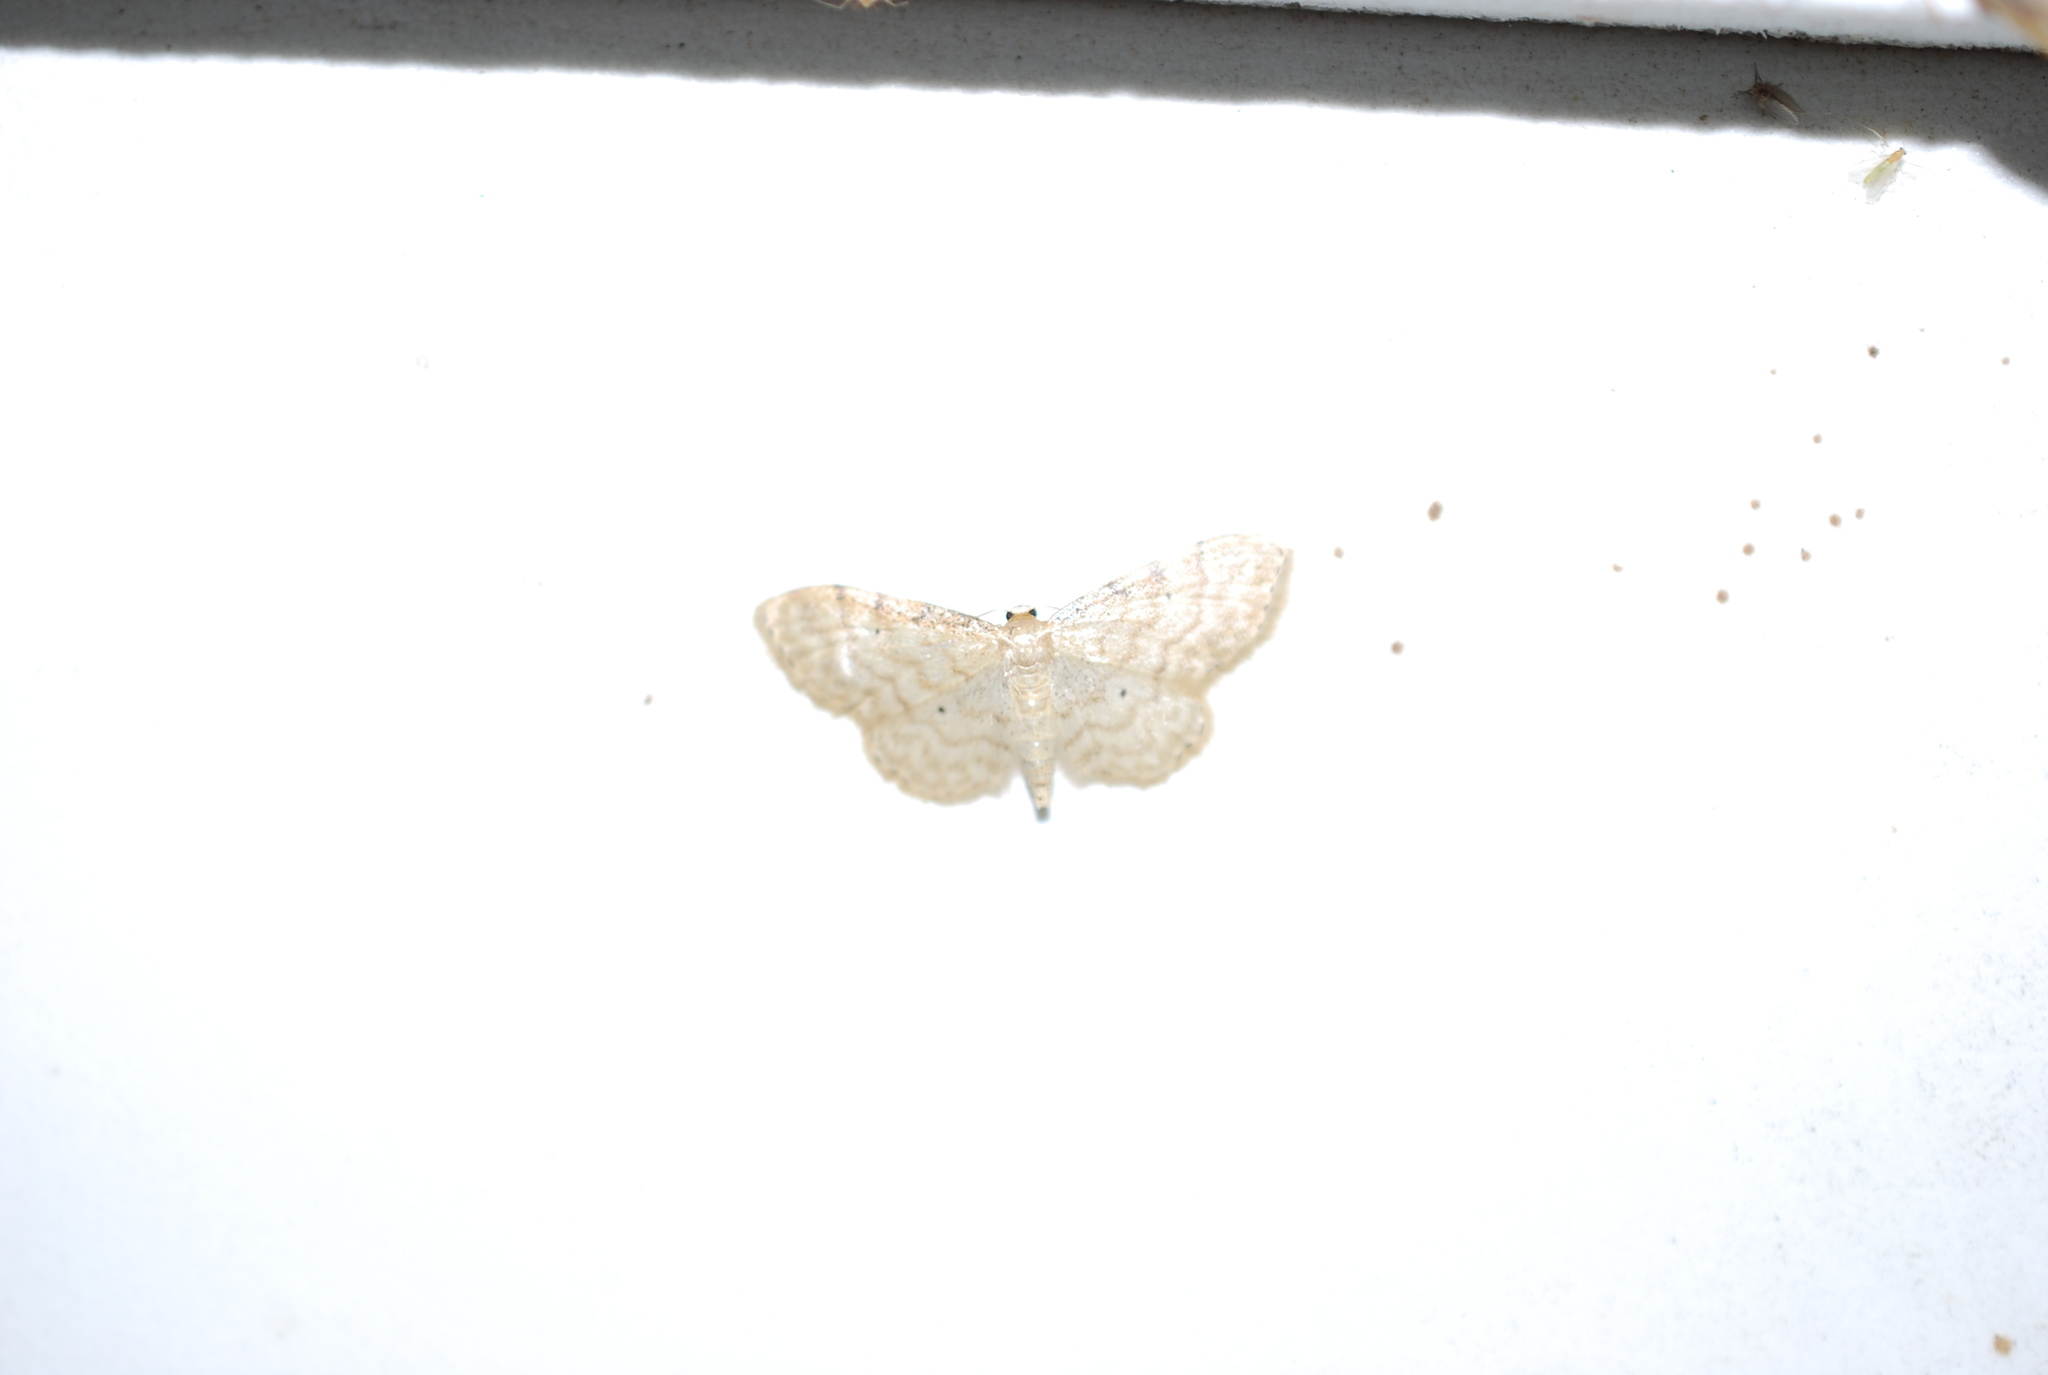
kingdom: Animalia
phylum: Arthropoda
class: Insecta
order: Lepidoptera
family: Geometridae
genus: Idaea
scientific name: Idaea fuscovenosa
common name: Dwarf cream wave
